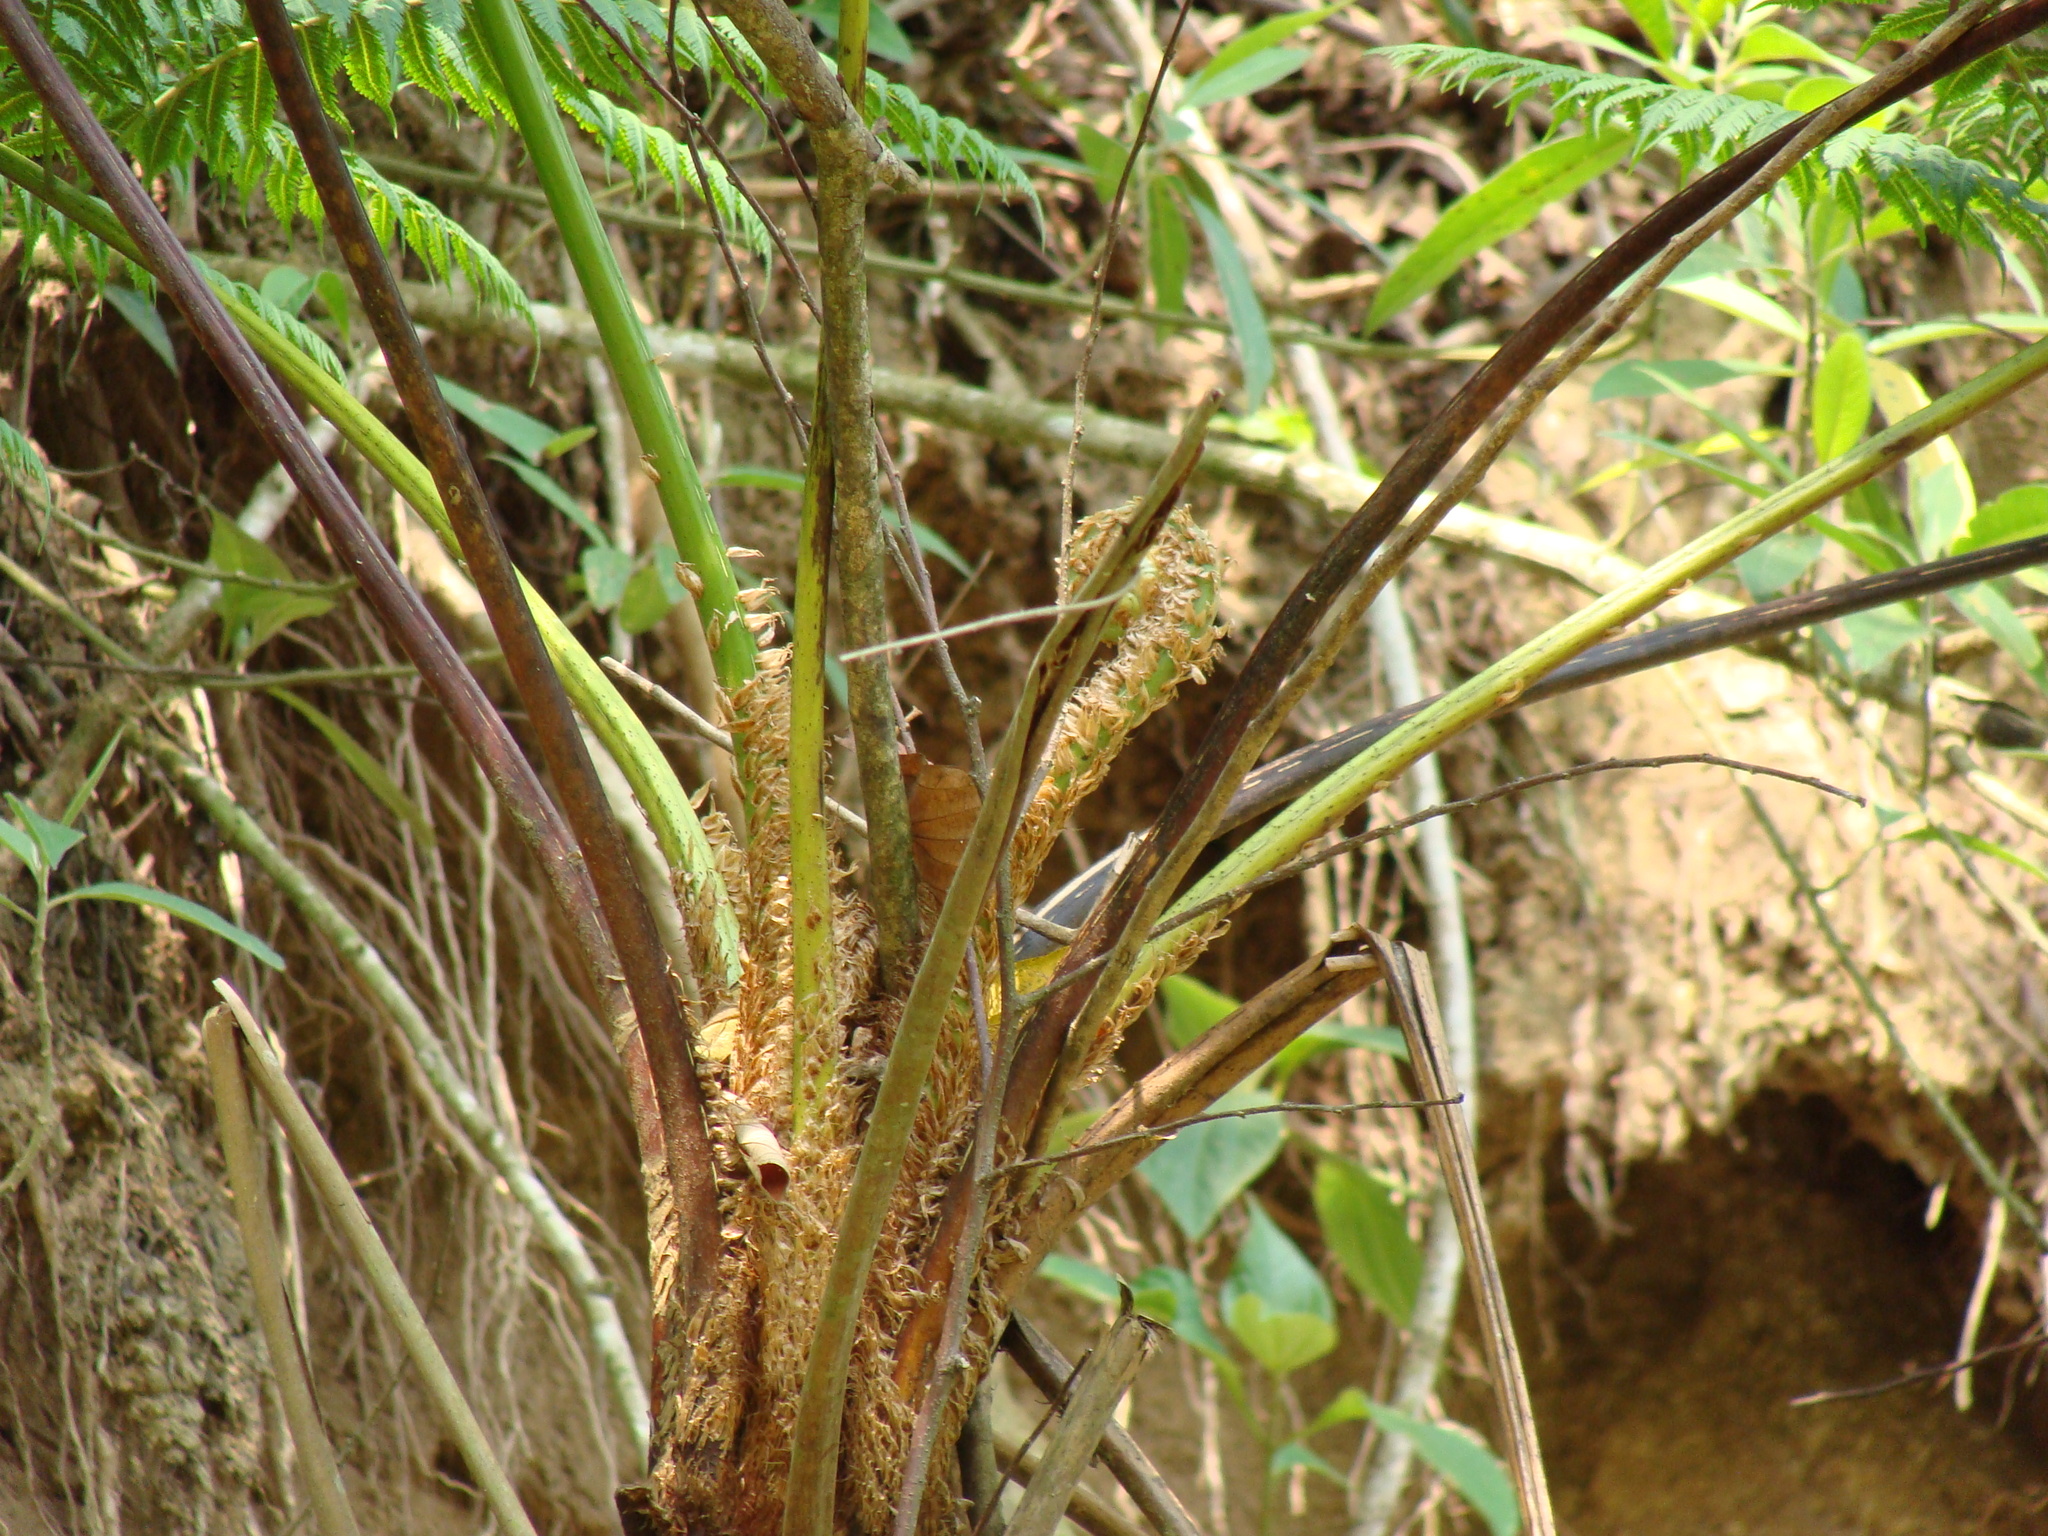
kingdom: Plantae
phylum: Tracheophyta
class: Polypodiopsida
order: Cyatheales
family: Cyatheaceae
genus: Cyathea
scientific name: Cyathea costaricensis
